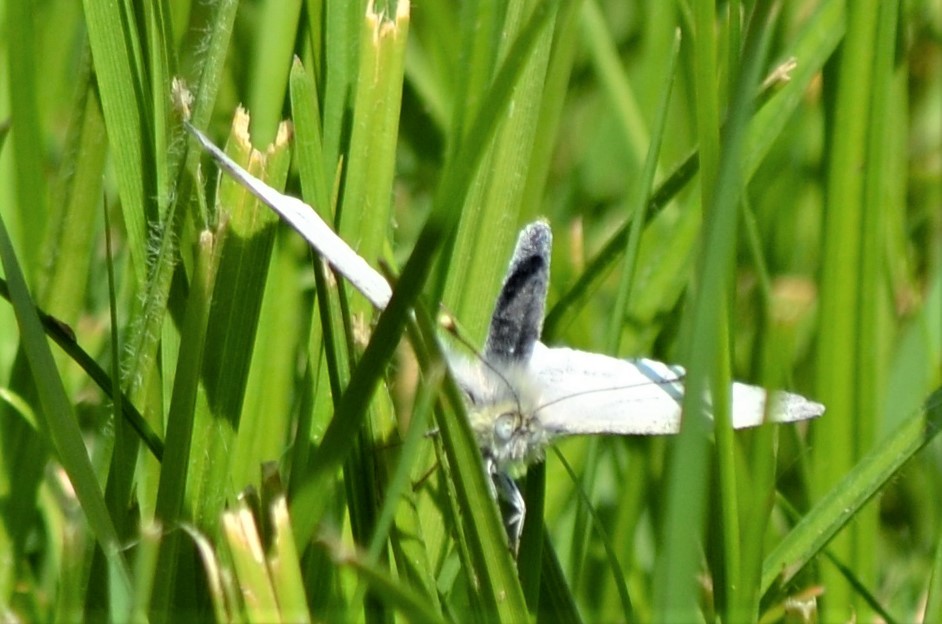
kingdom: Animalia
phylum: Arthropoda
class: Insecta
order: Lepidoptera
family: Pieridae
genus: Pieris
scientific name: Pieris napi
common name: Green-veined white
